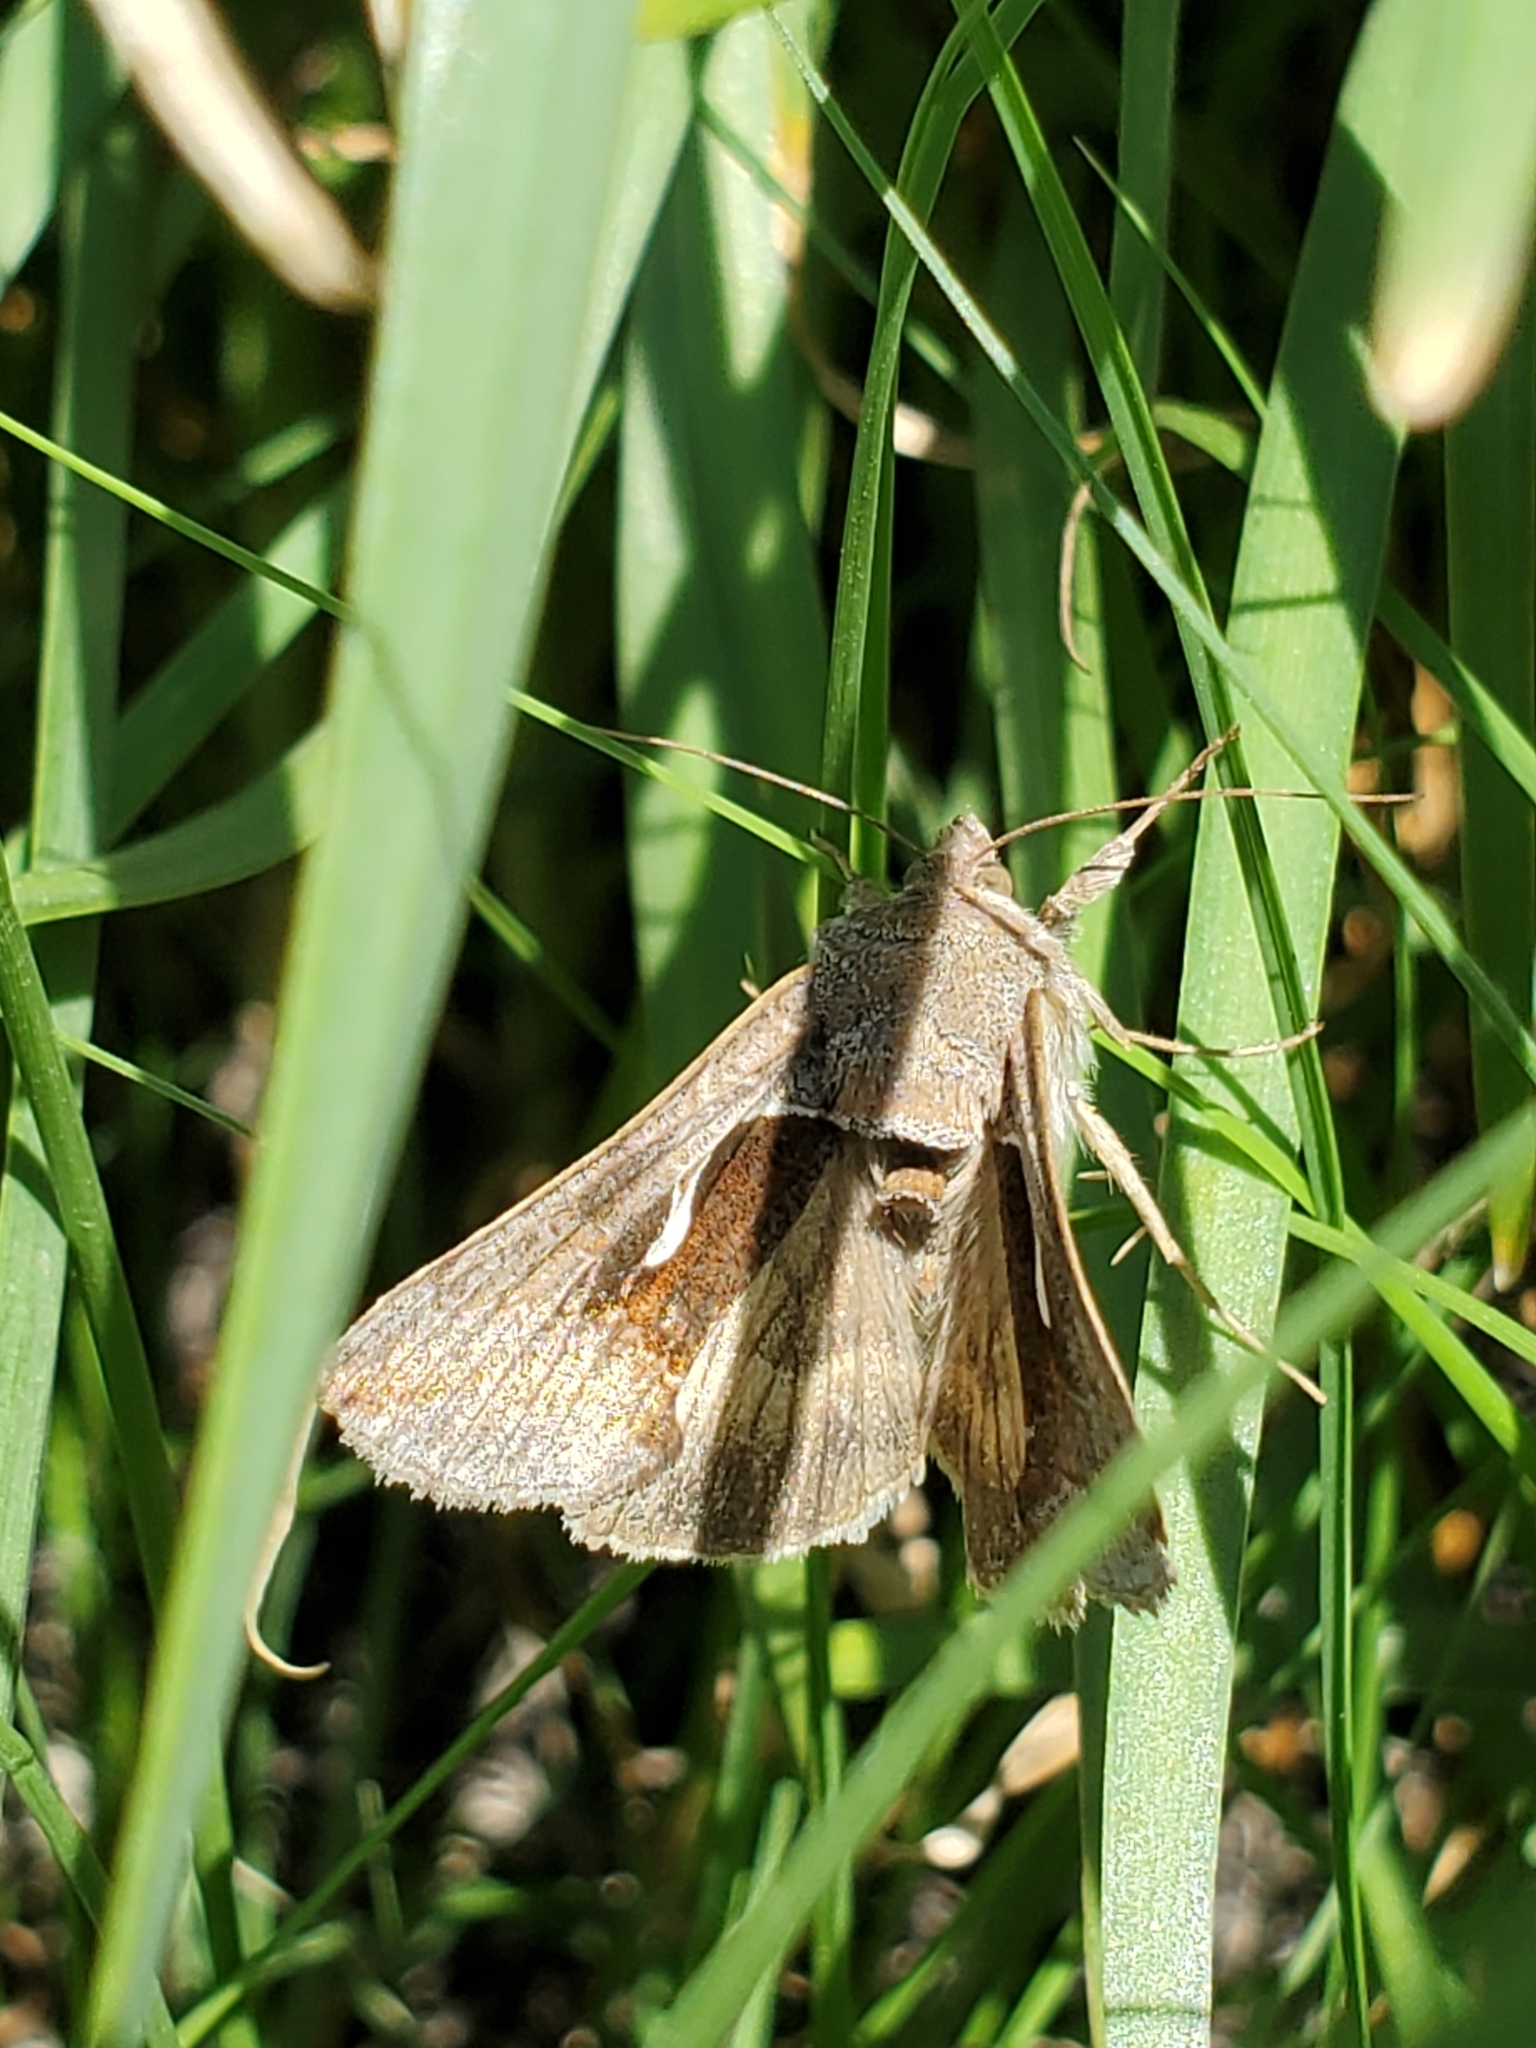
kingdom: Animalia
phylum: Arthropoda
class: Insecta
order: Lepidoptera
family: Noctuidae
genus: Anagrapha
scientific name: Anagrapha falcifera
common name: Celery looper
